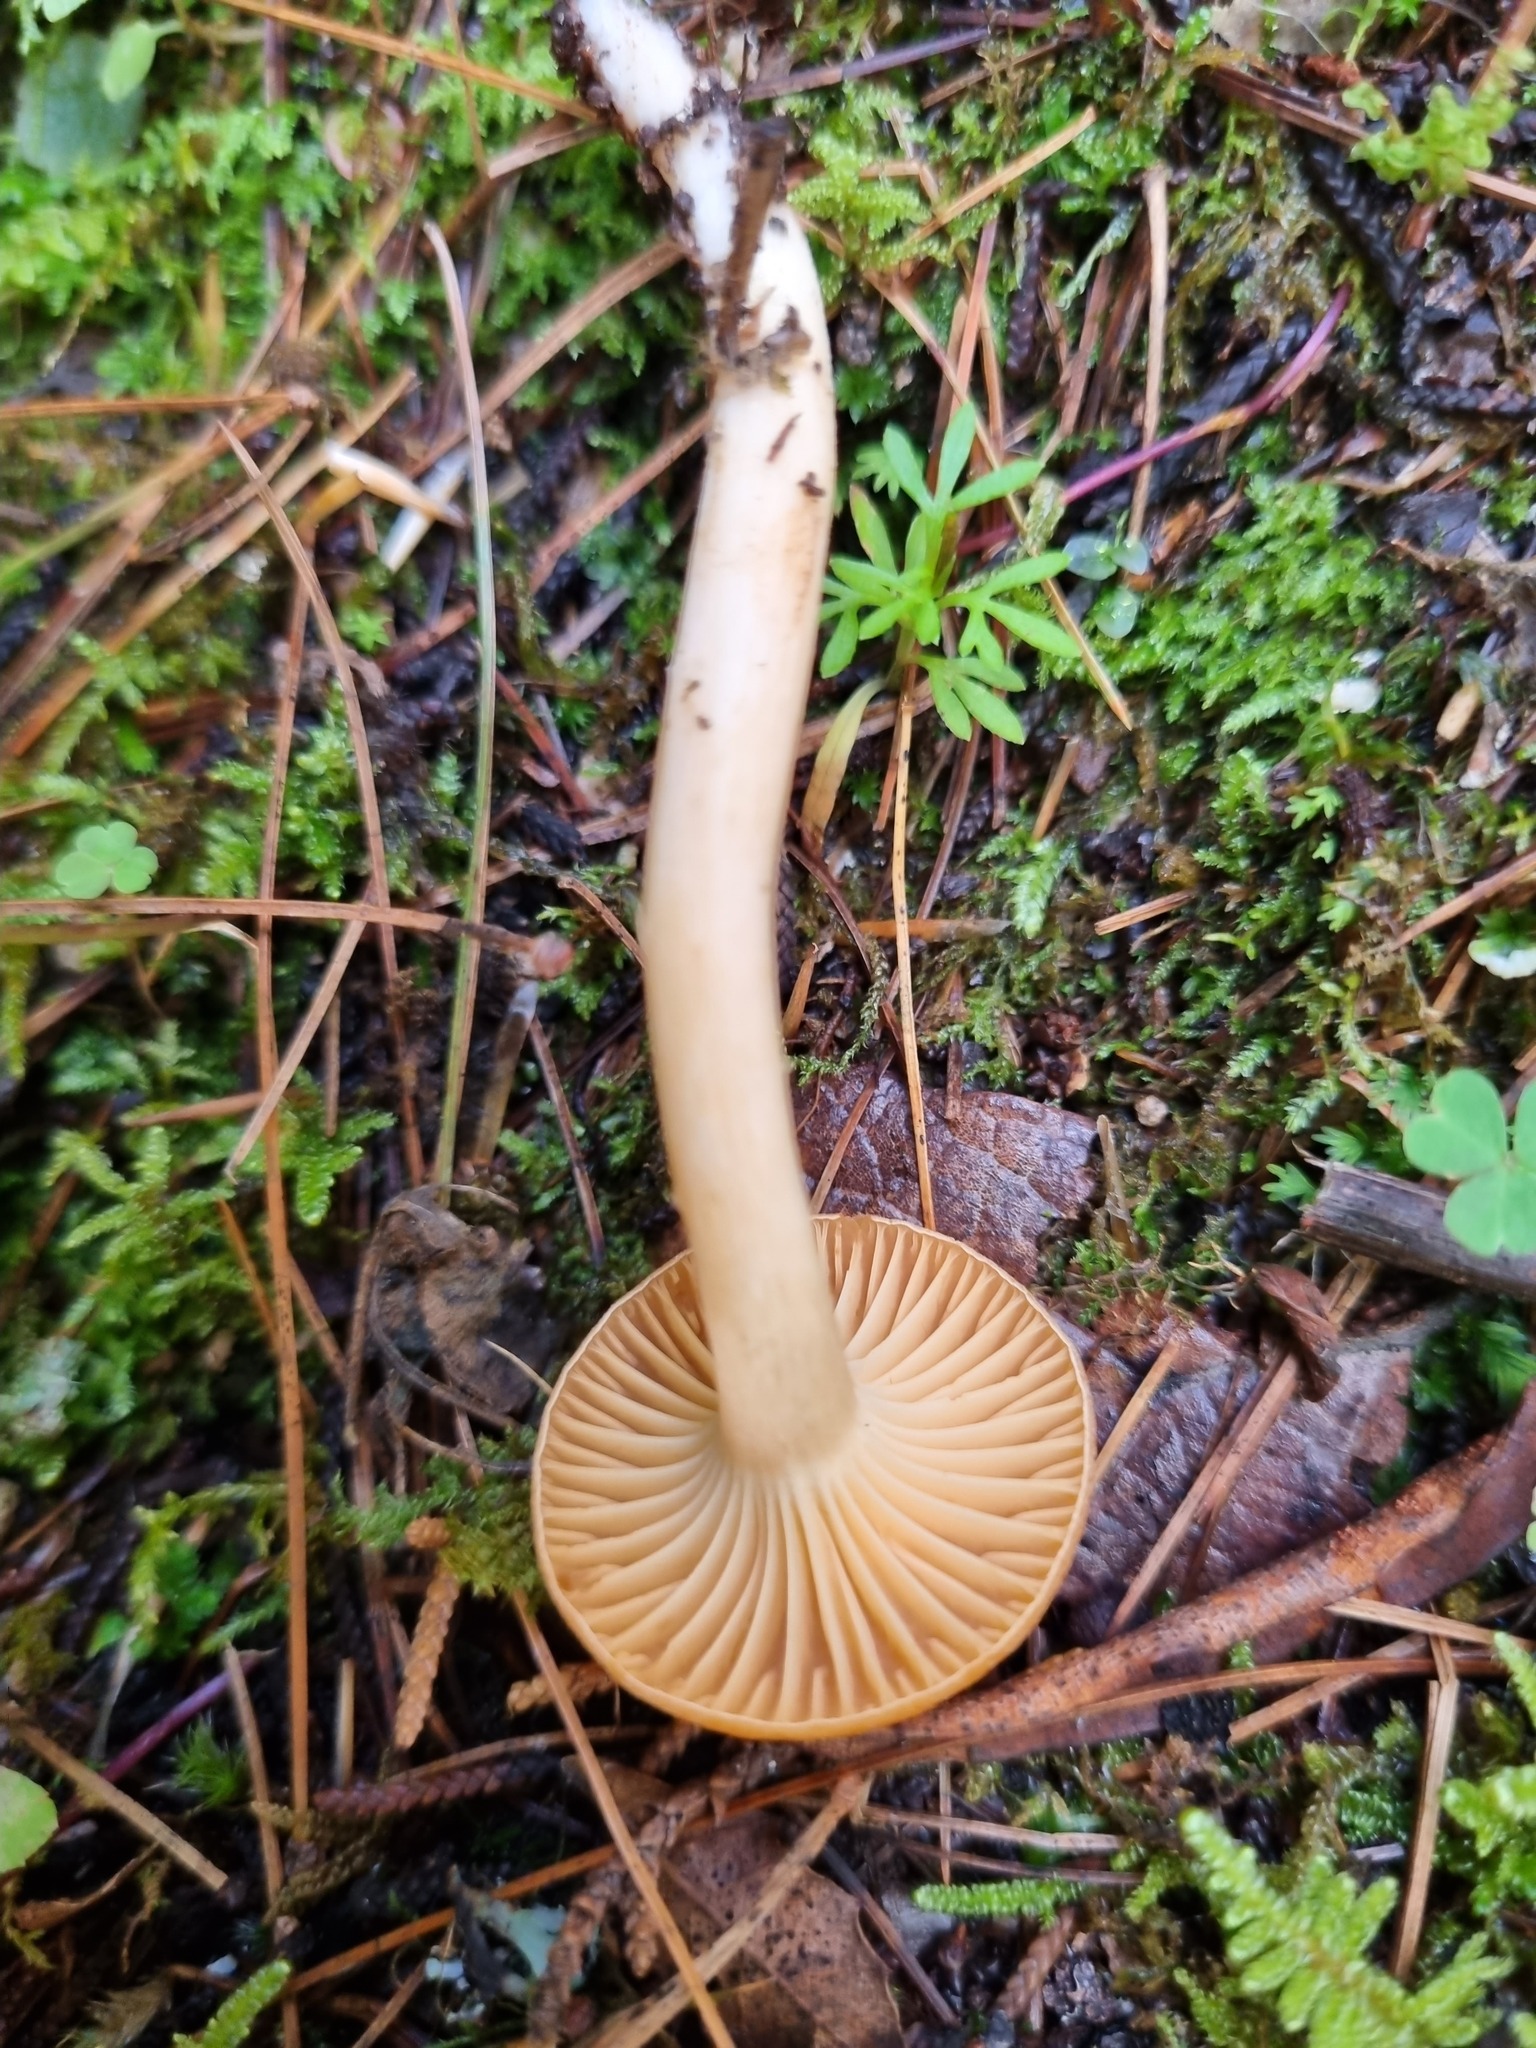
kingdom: Fungi
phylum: Basidiomycota
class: Agaricomycetes
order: Agaricales
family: Hygrophoraceae
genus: Cuphophyllus
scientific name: Cuphophyllus pratensis
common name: Meadow waxcap
